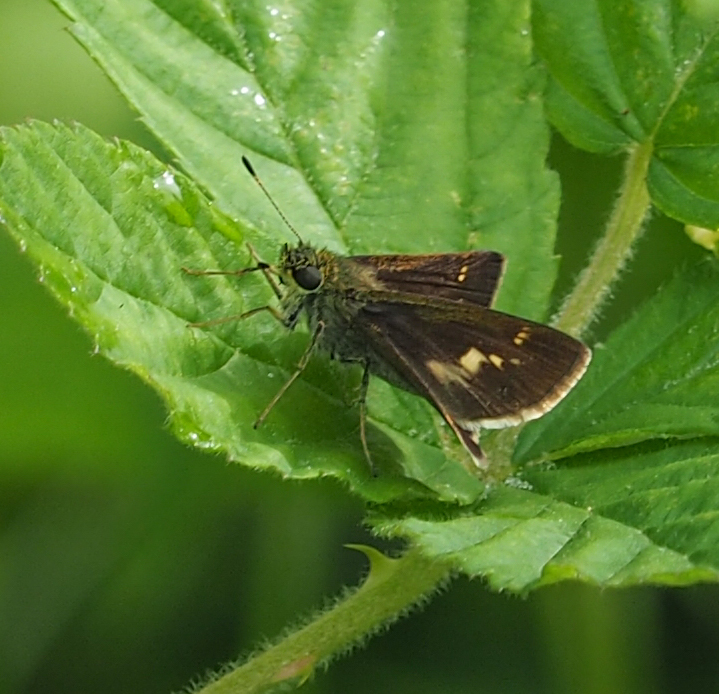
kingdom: Animalia
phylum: Arthropoda
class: Insecta
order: Lepidoptera
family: Hesperiidae
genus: Vernia
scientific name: Vernia verna
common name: Little glassywing
